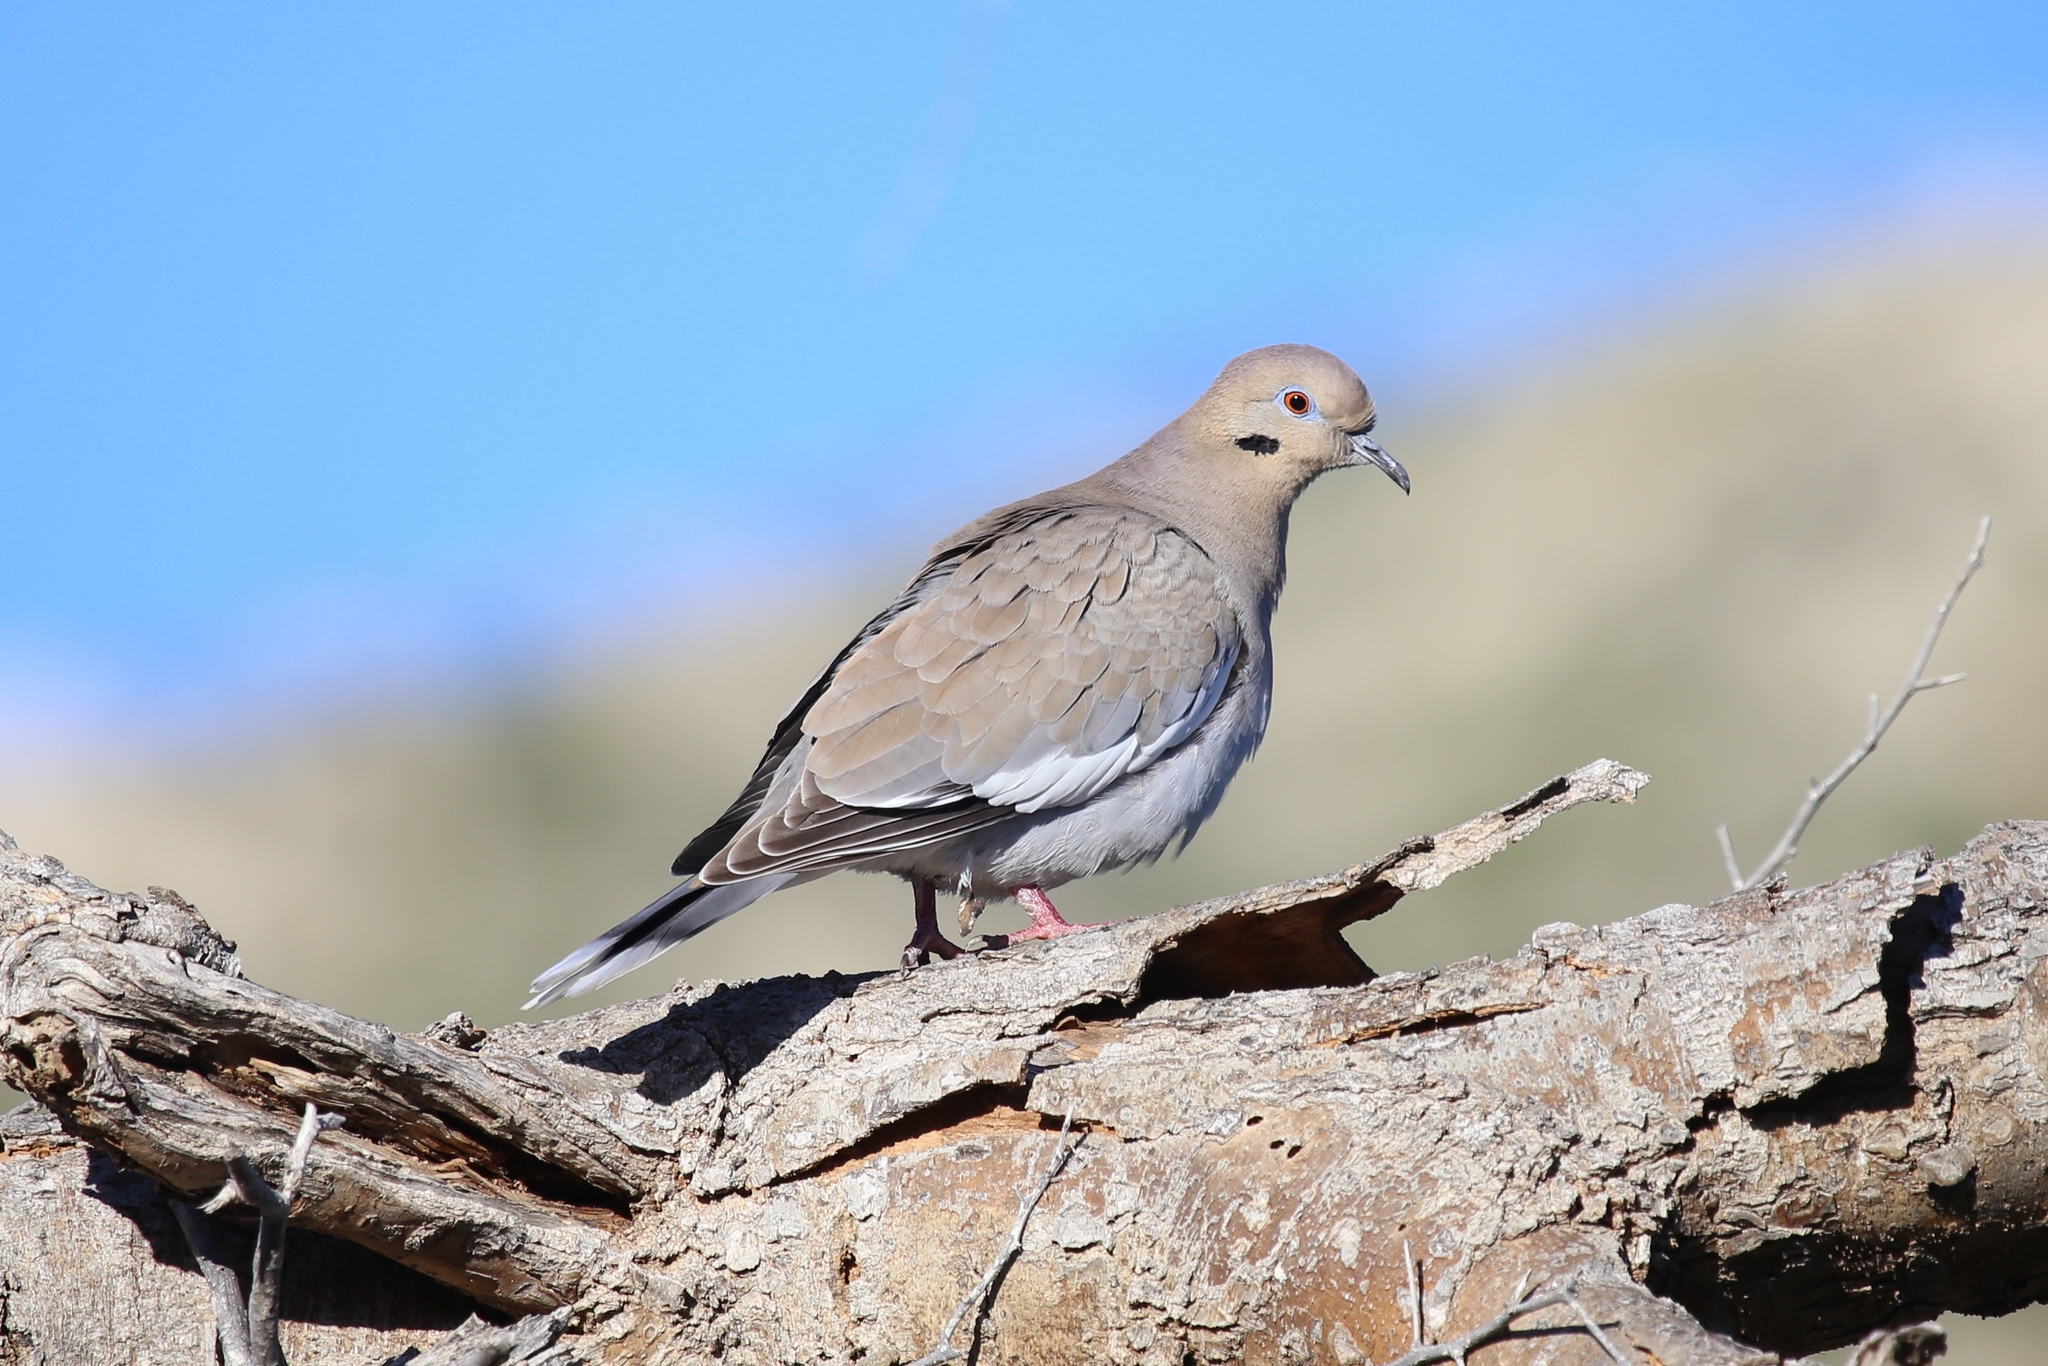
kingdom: Animalia
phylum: Chordata
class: Aves
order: Columbiformes
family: Columbidae
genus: Zenaida
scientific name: Zenaida asiatica
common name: White-winged dove
